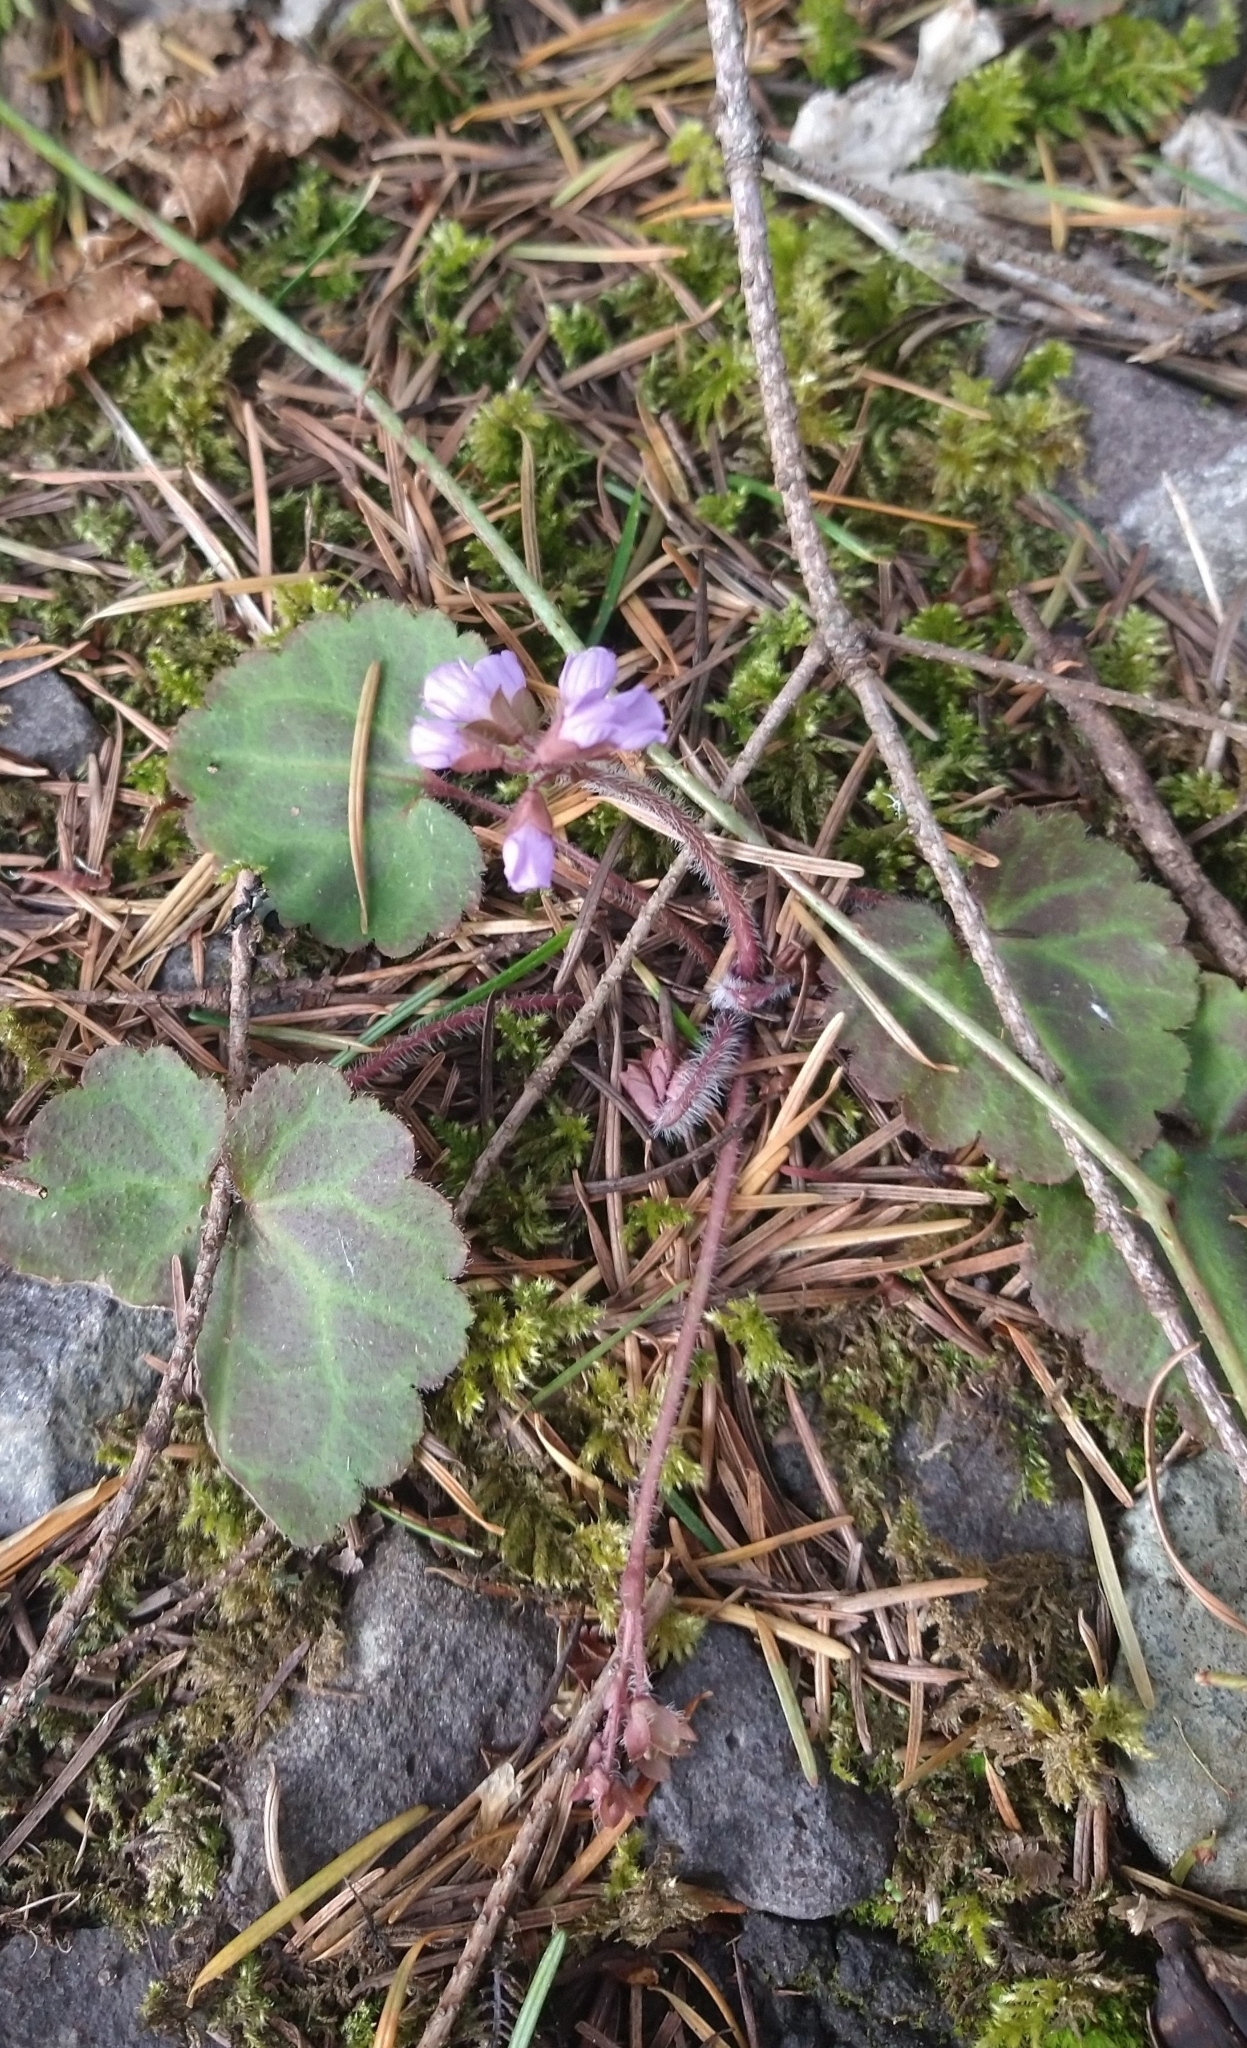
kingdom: Plantae
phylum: Tracheophyta
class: Magnoliopsida
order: Lamiales
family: Plantaginaceae
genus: Synthyris
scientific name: Synthyris reniformis
